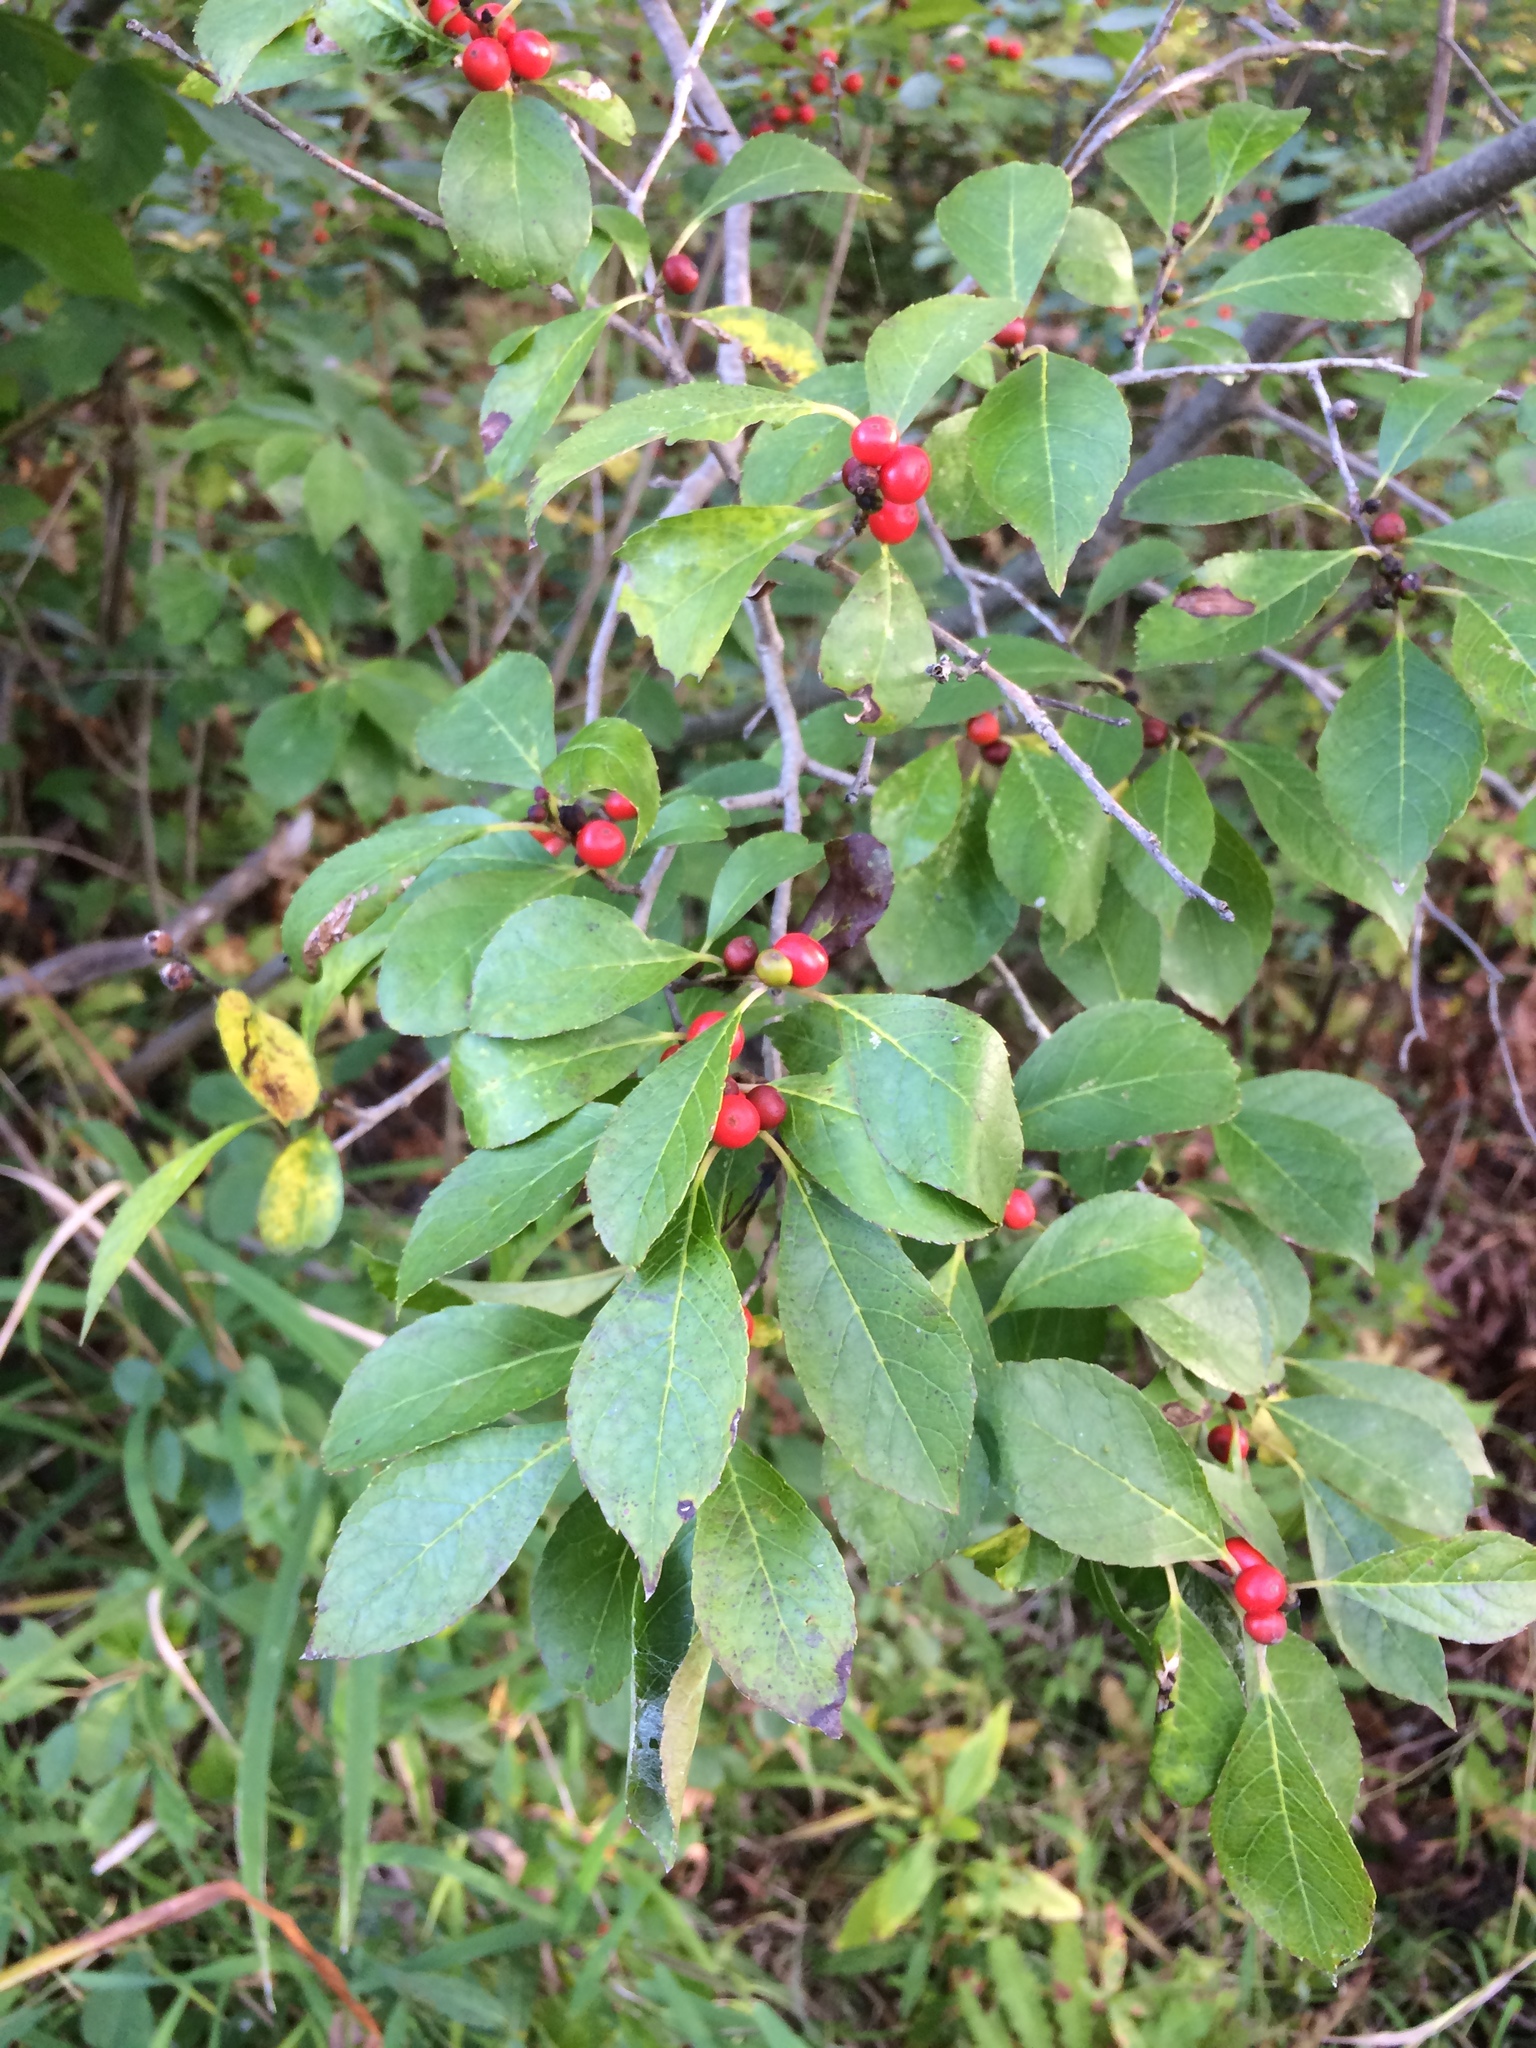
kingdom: Plantae
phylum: Tracheophyta
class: Magnoliopsida
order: Aquifoliales
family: Aquifoliaceae
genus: Ilex
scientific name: Ilex verticillata
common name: Virginia winterberry
